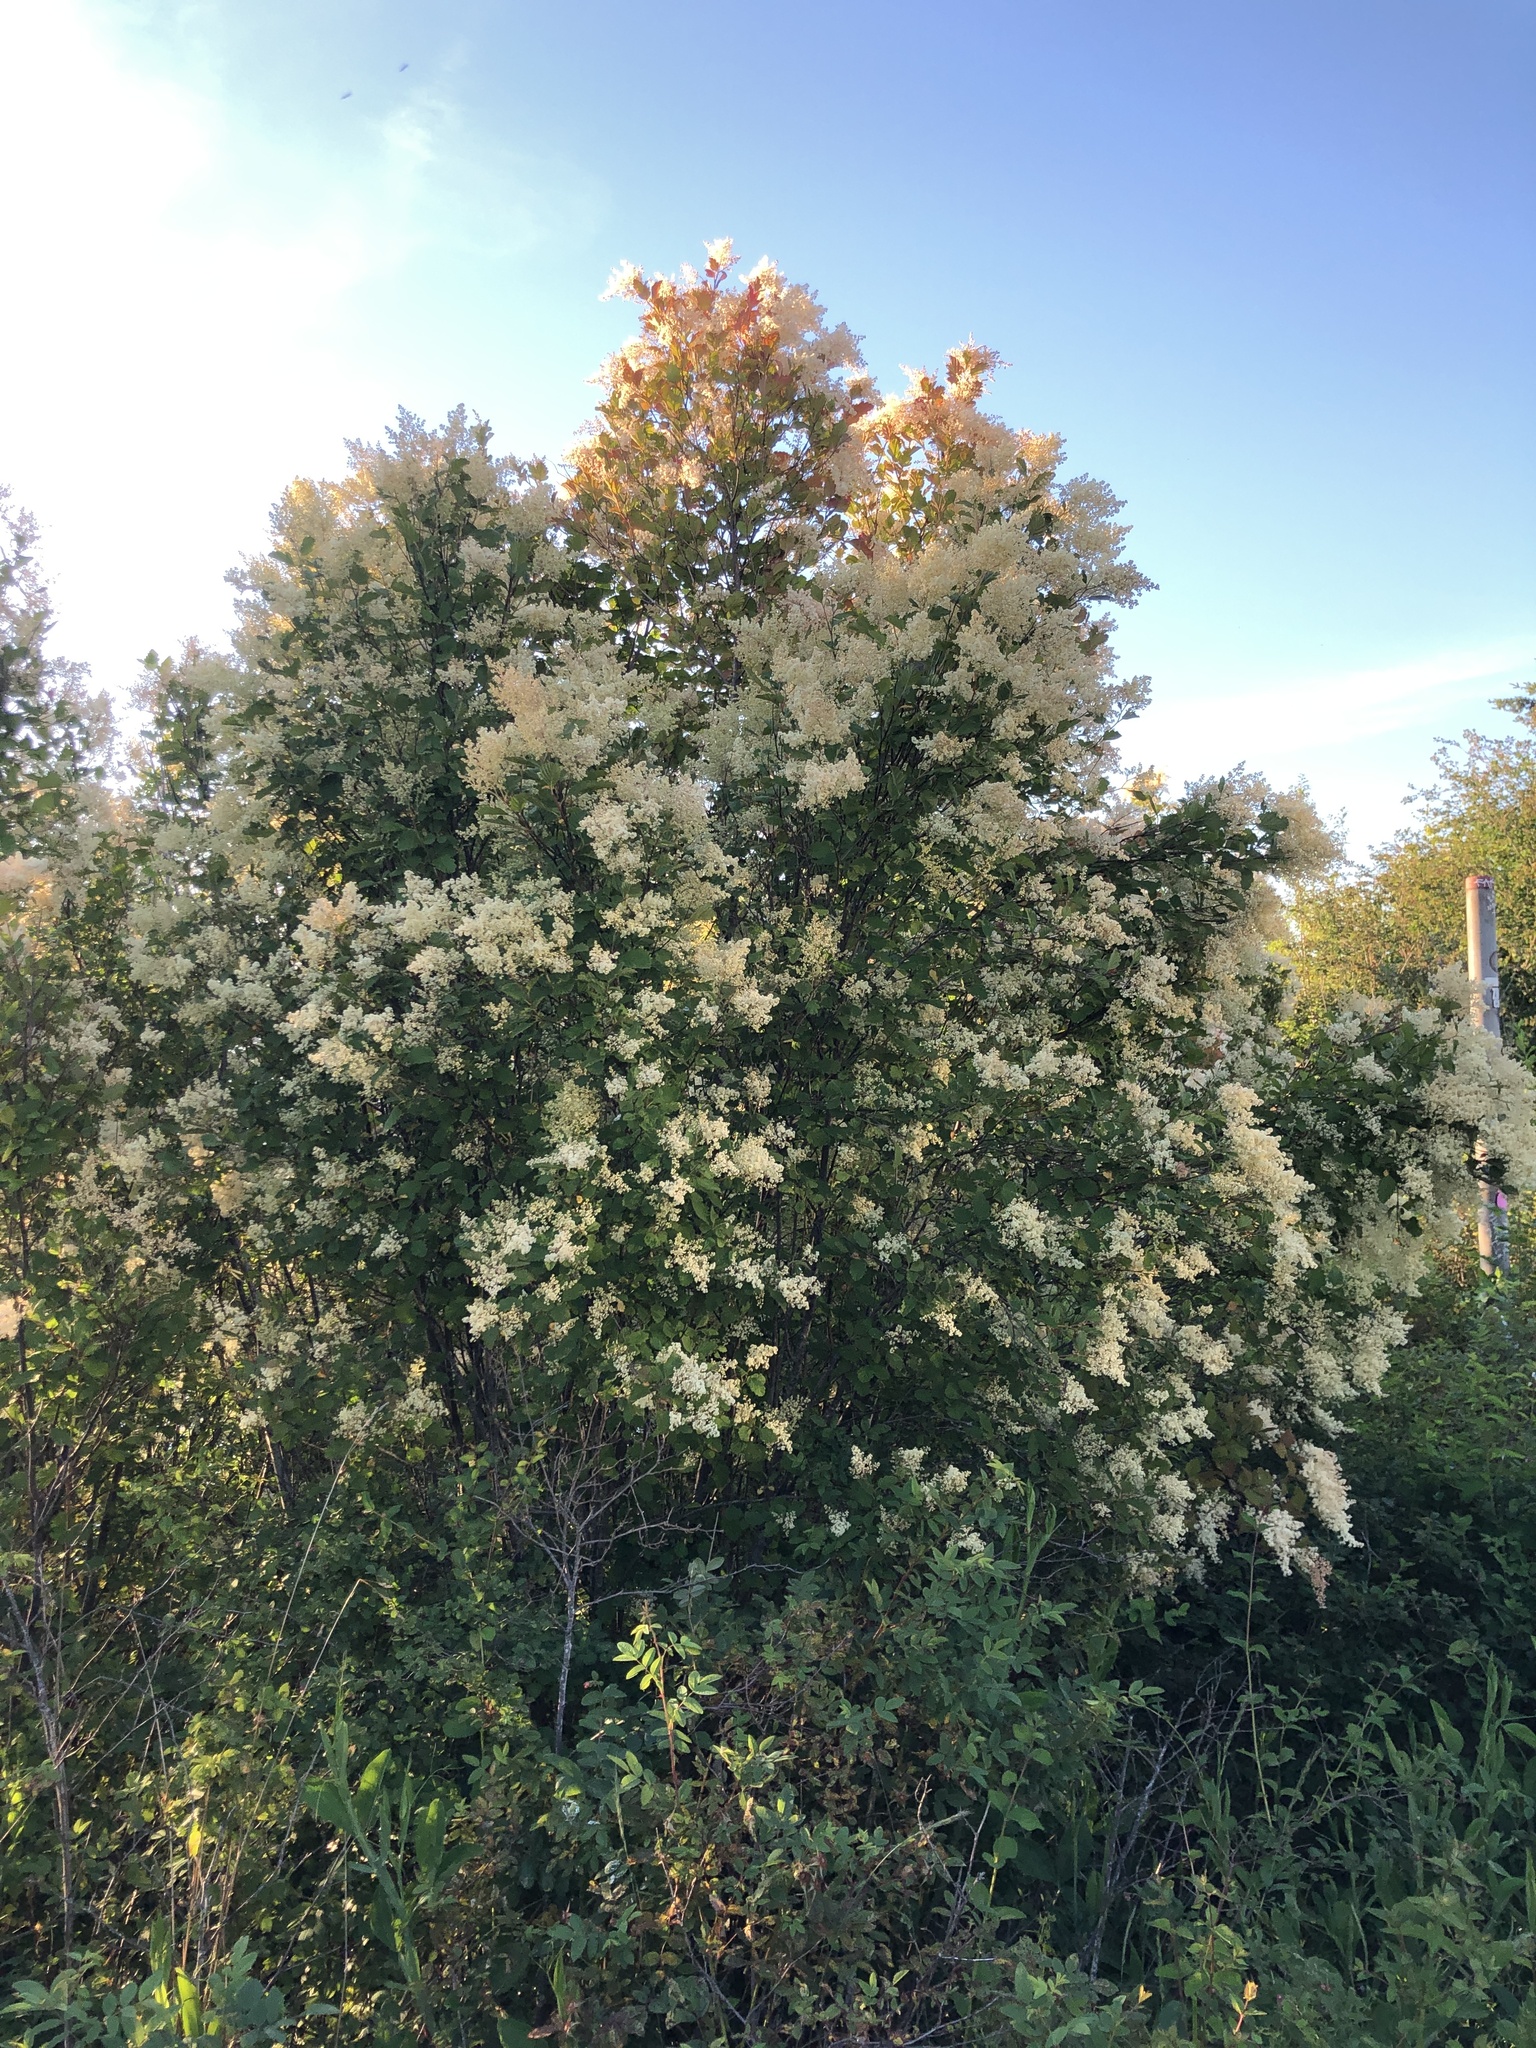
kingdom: Plantae
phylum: Tracheophyta
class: Magnoliopsida
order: Rosales
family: Rosaceae
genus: Holodiscus
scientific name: Holodiscus discolor
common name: Oceanspray
